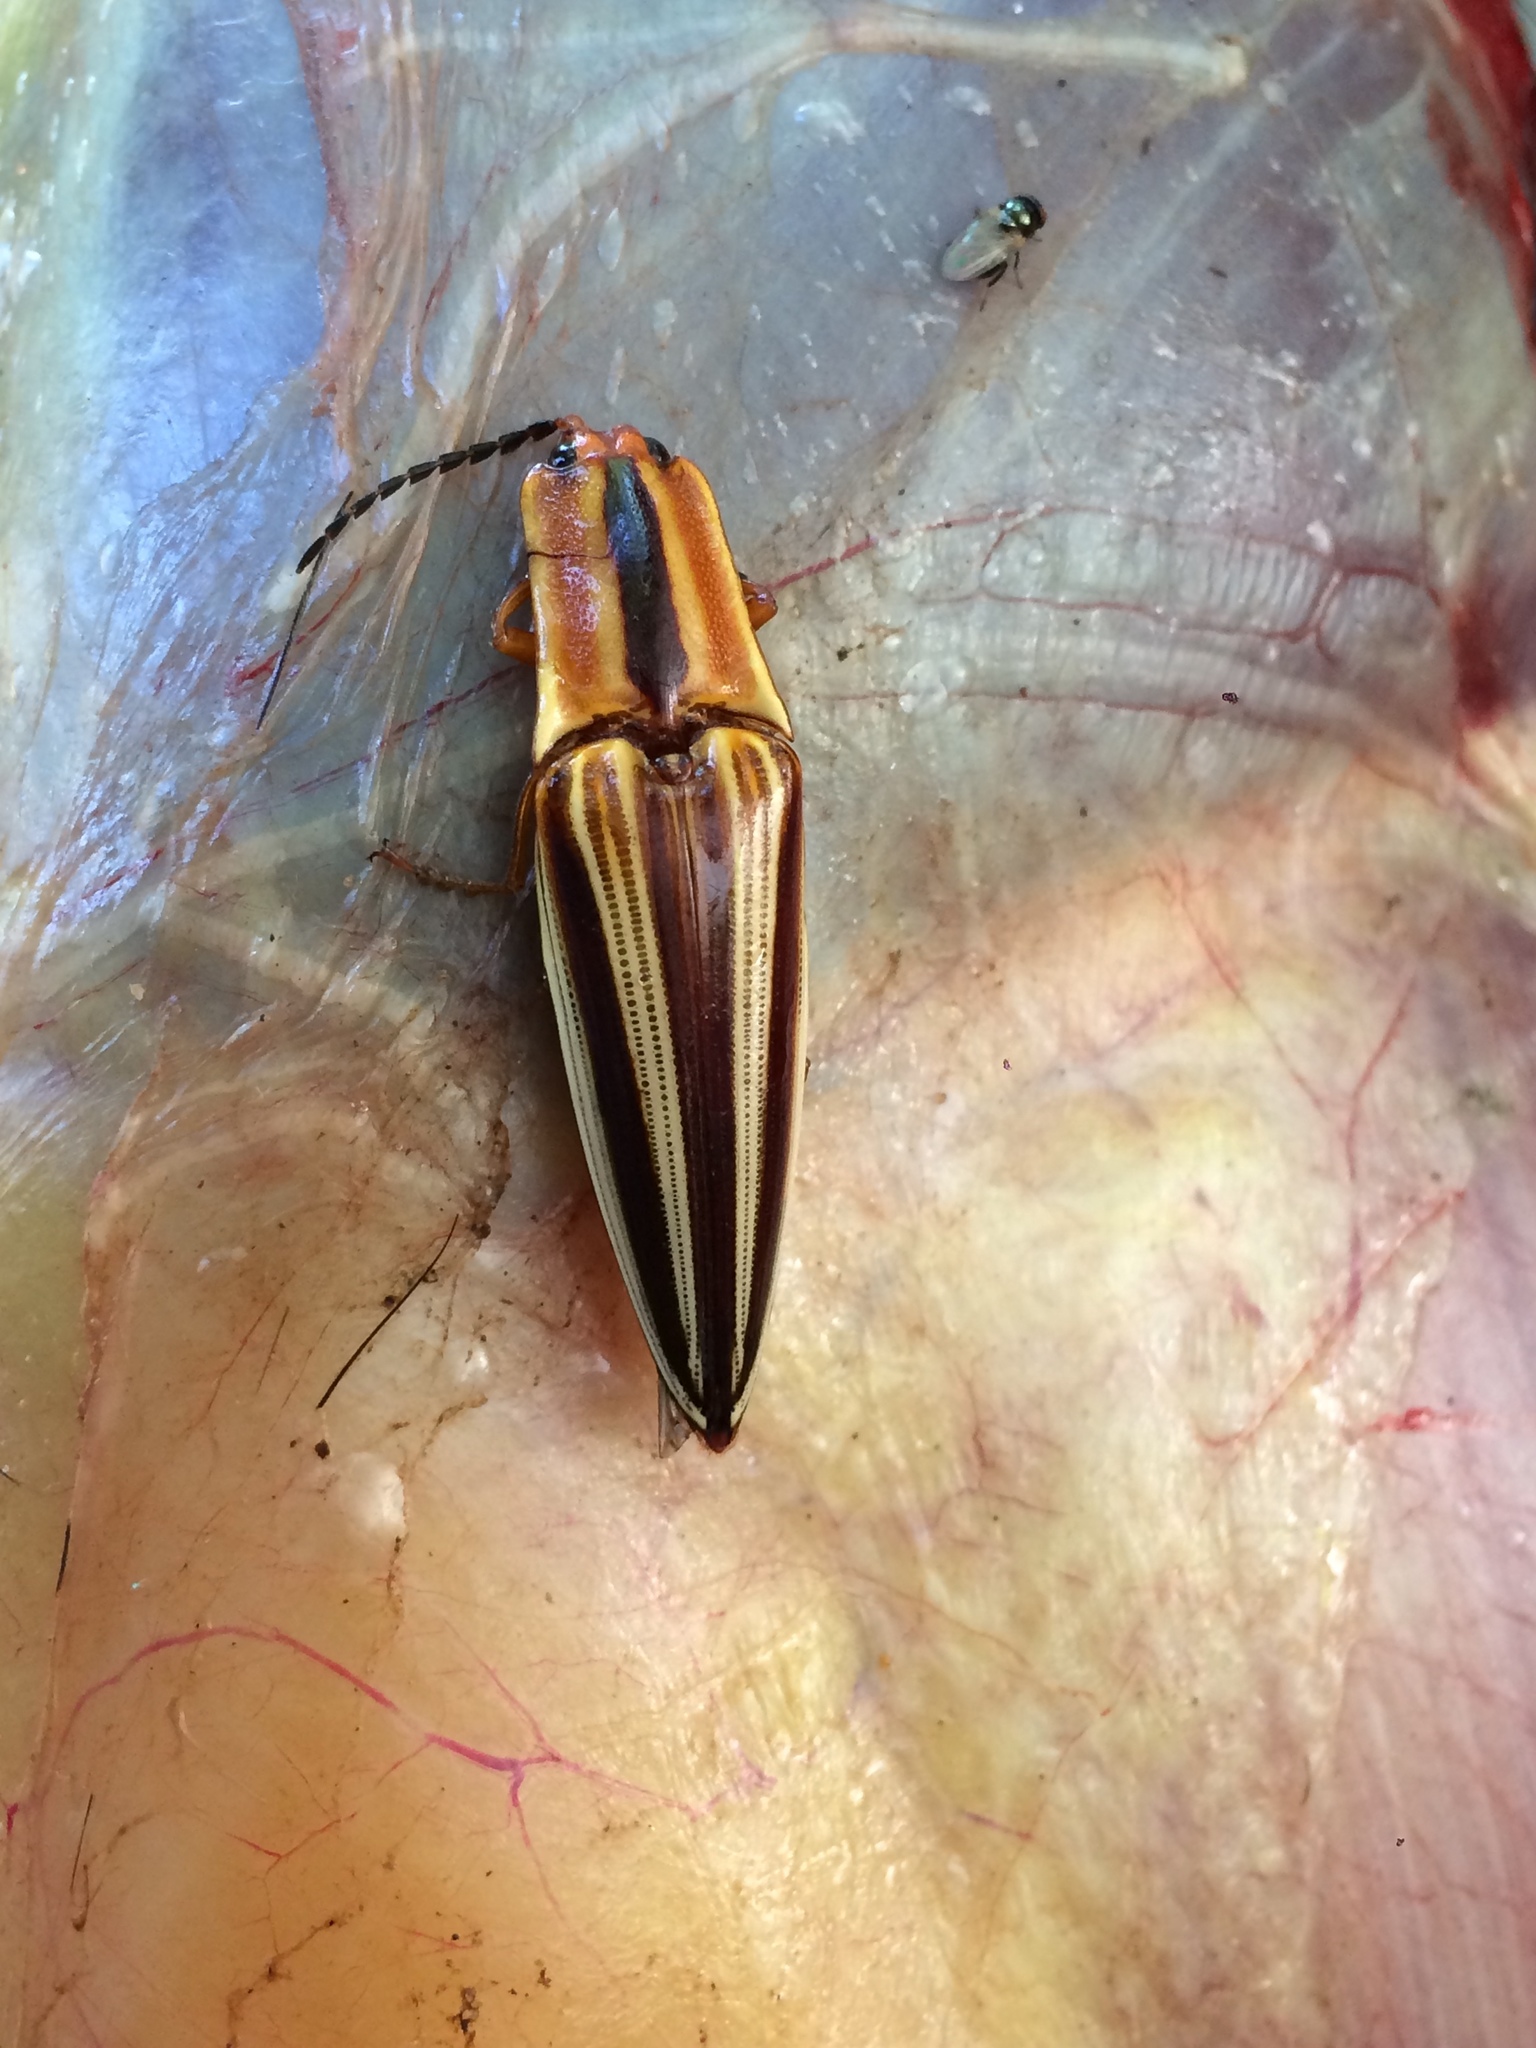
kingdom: Animalia
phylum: Arthropoda
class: Insecta
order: Coleoptera
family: Elateridae
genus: Semiotus
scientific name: Semiotus
